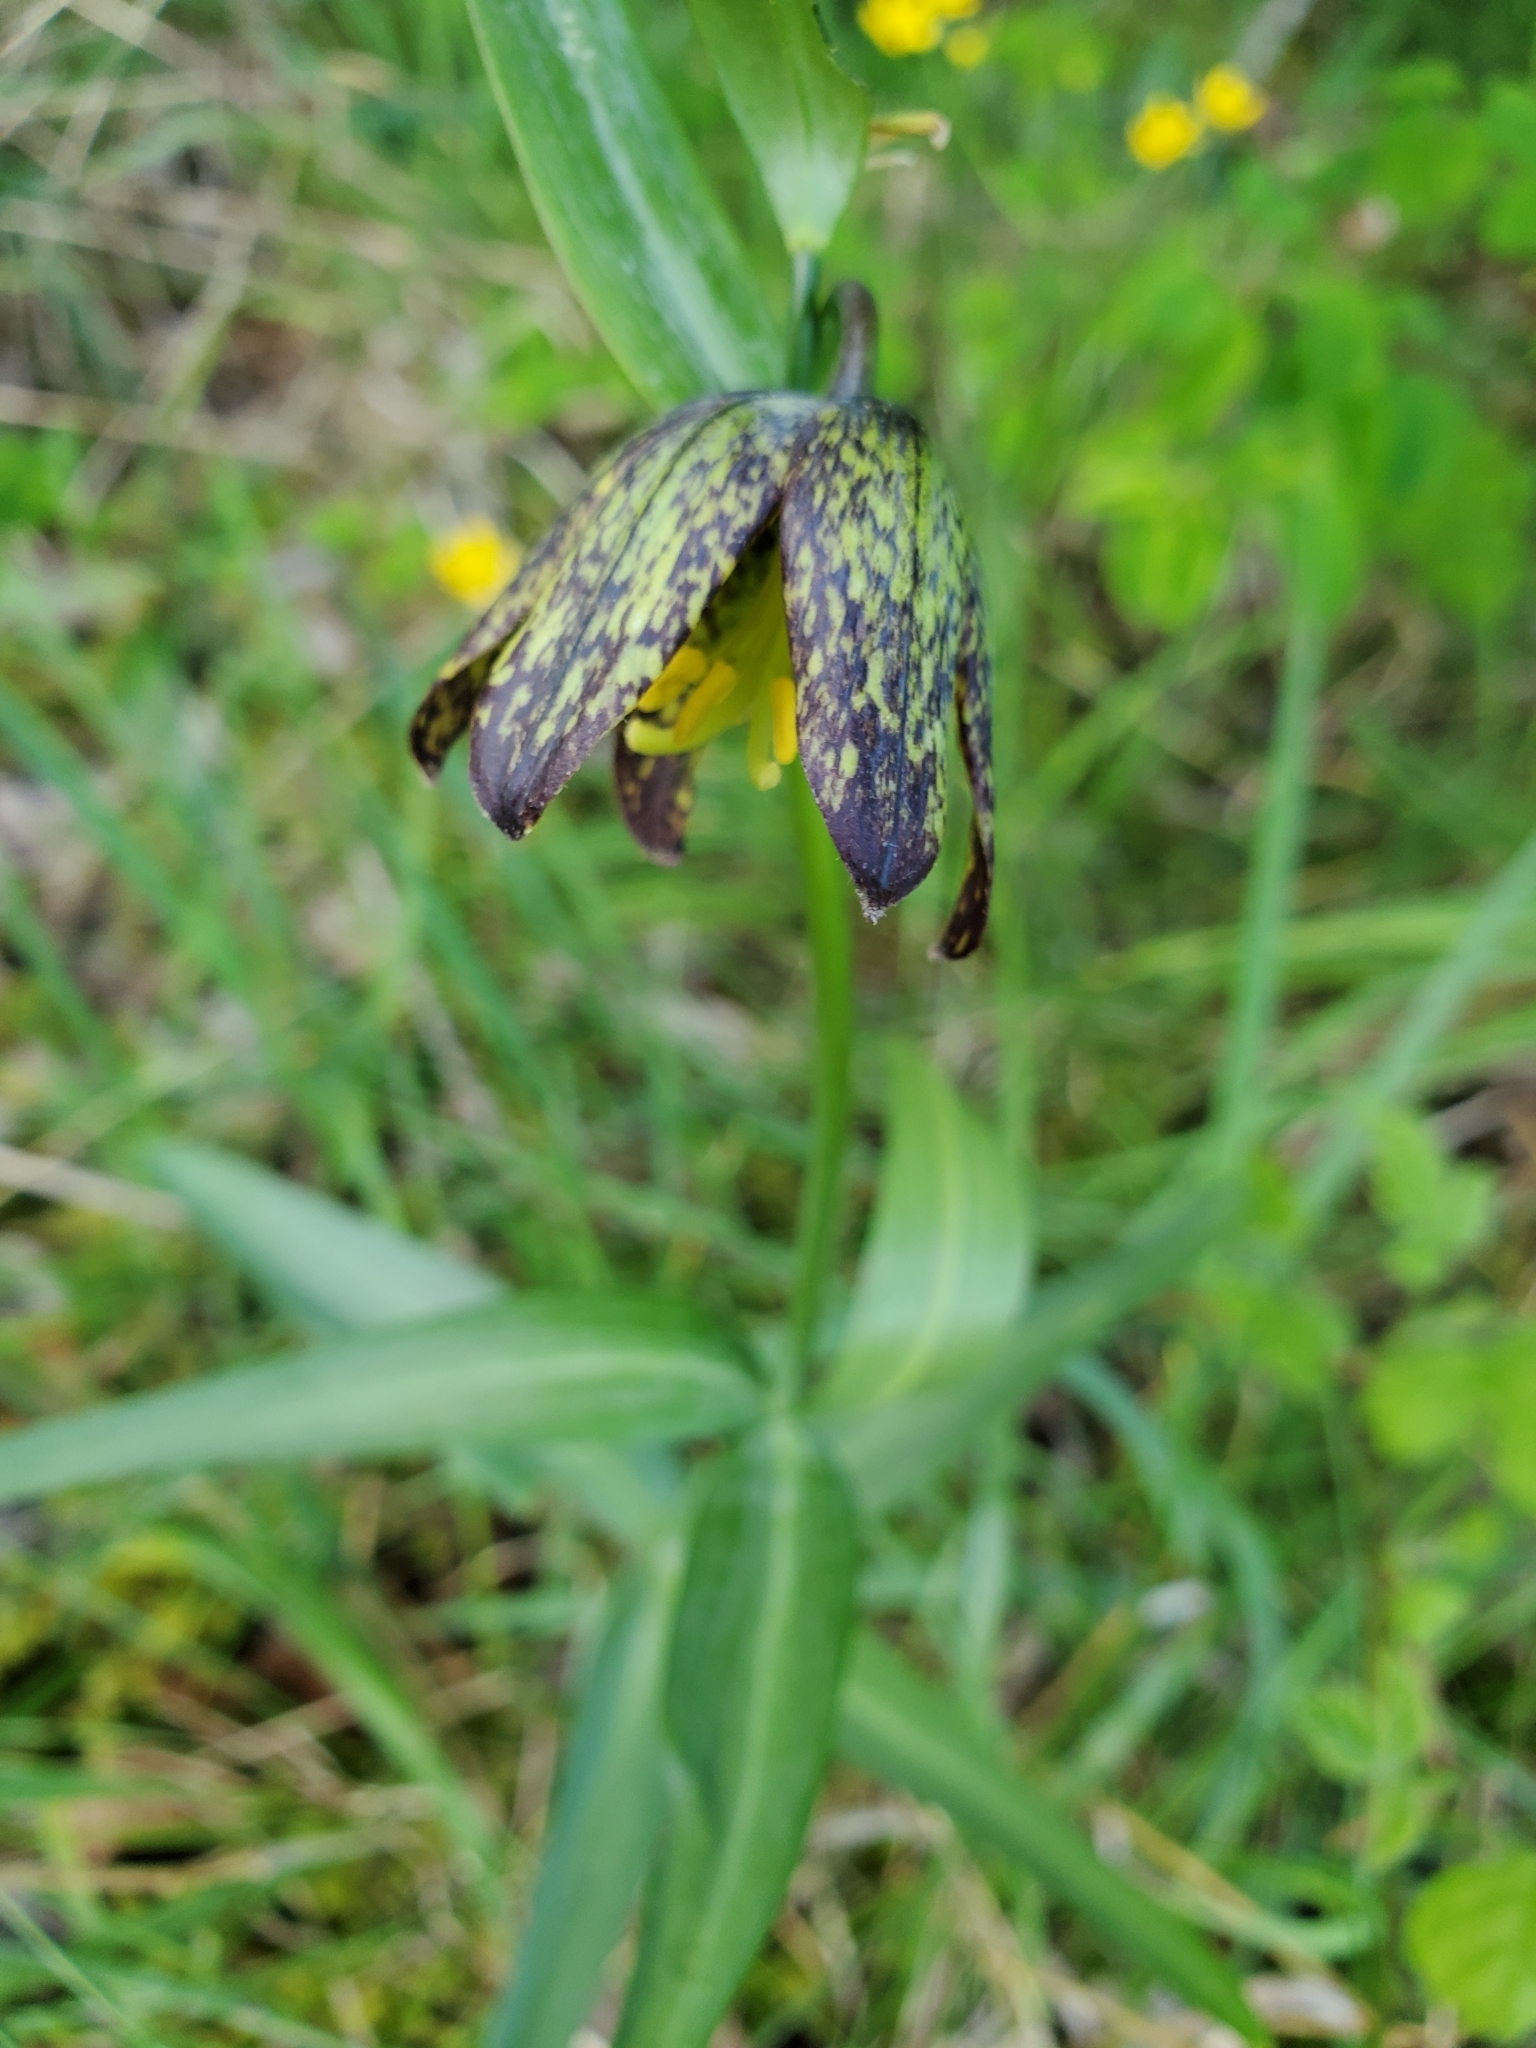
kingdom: Plantae
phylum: Tracheophyta
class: Liliopsida
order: Liliales
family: Liliaceae
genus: Fritillaria
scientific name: Fritillaria affinis
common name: Ojai fritillary
